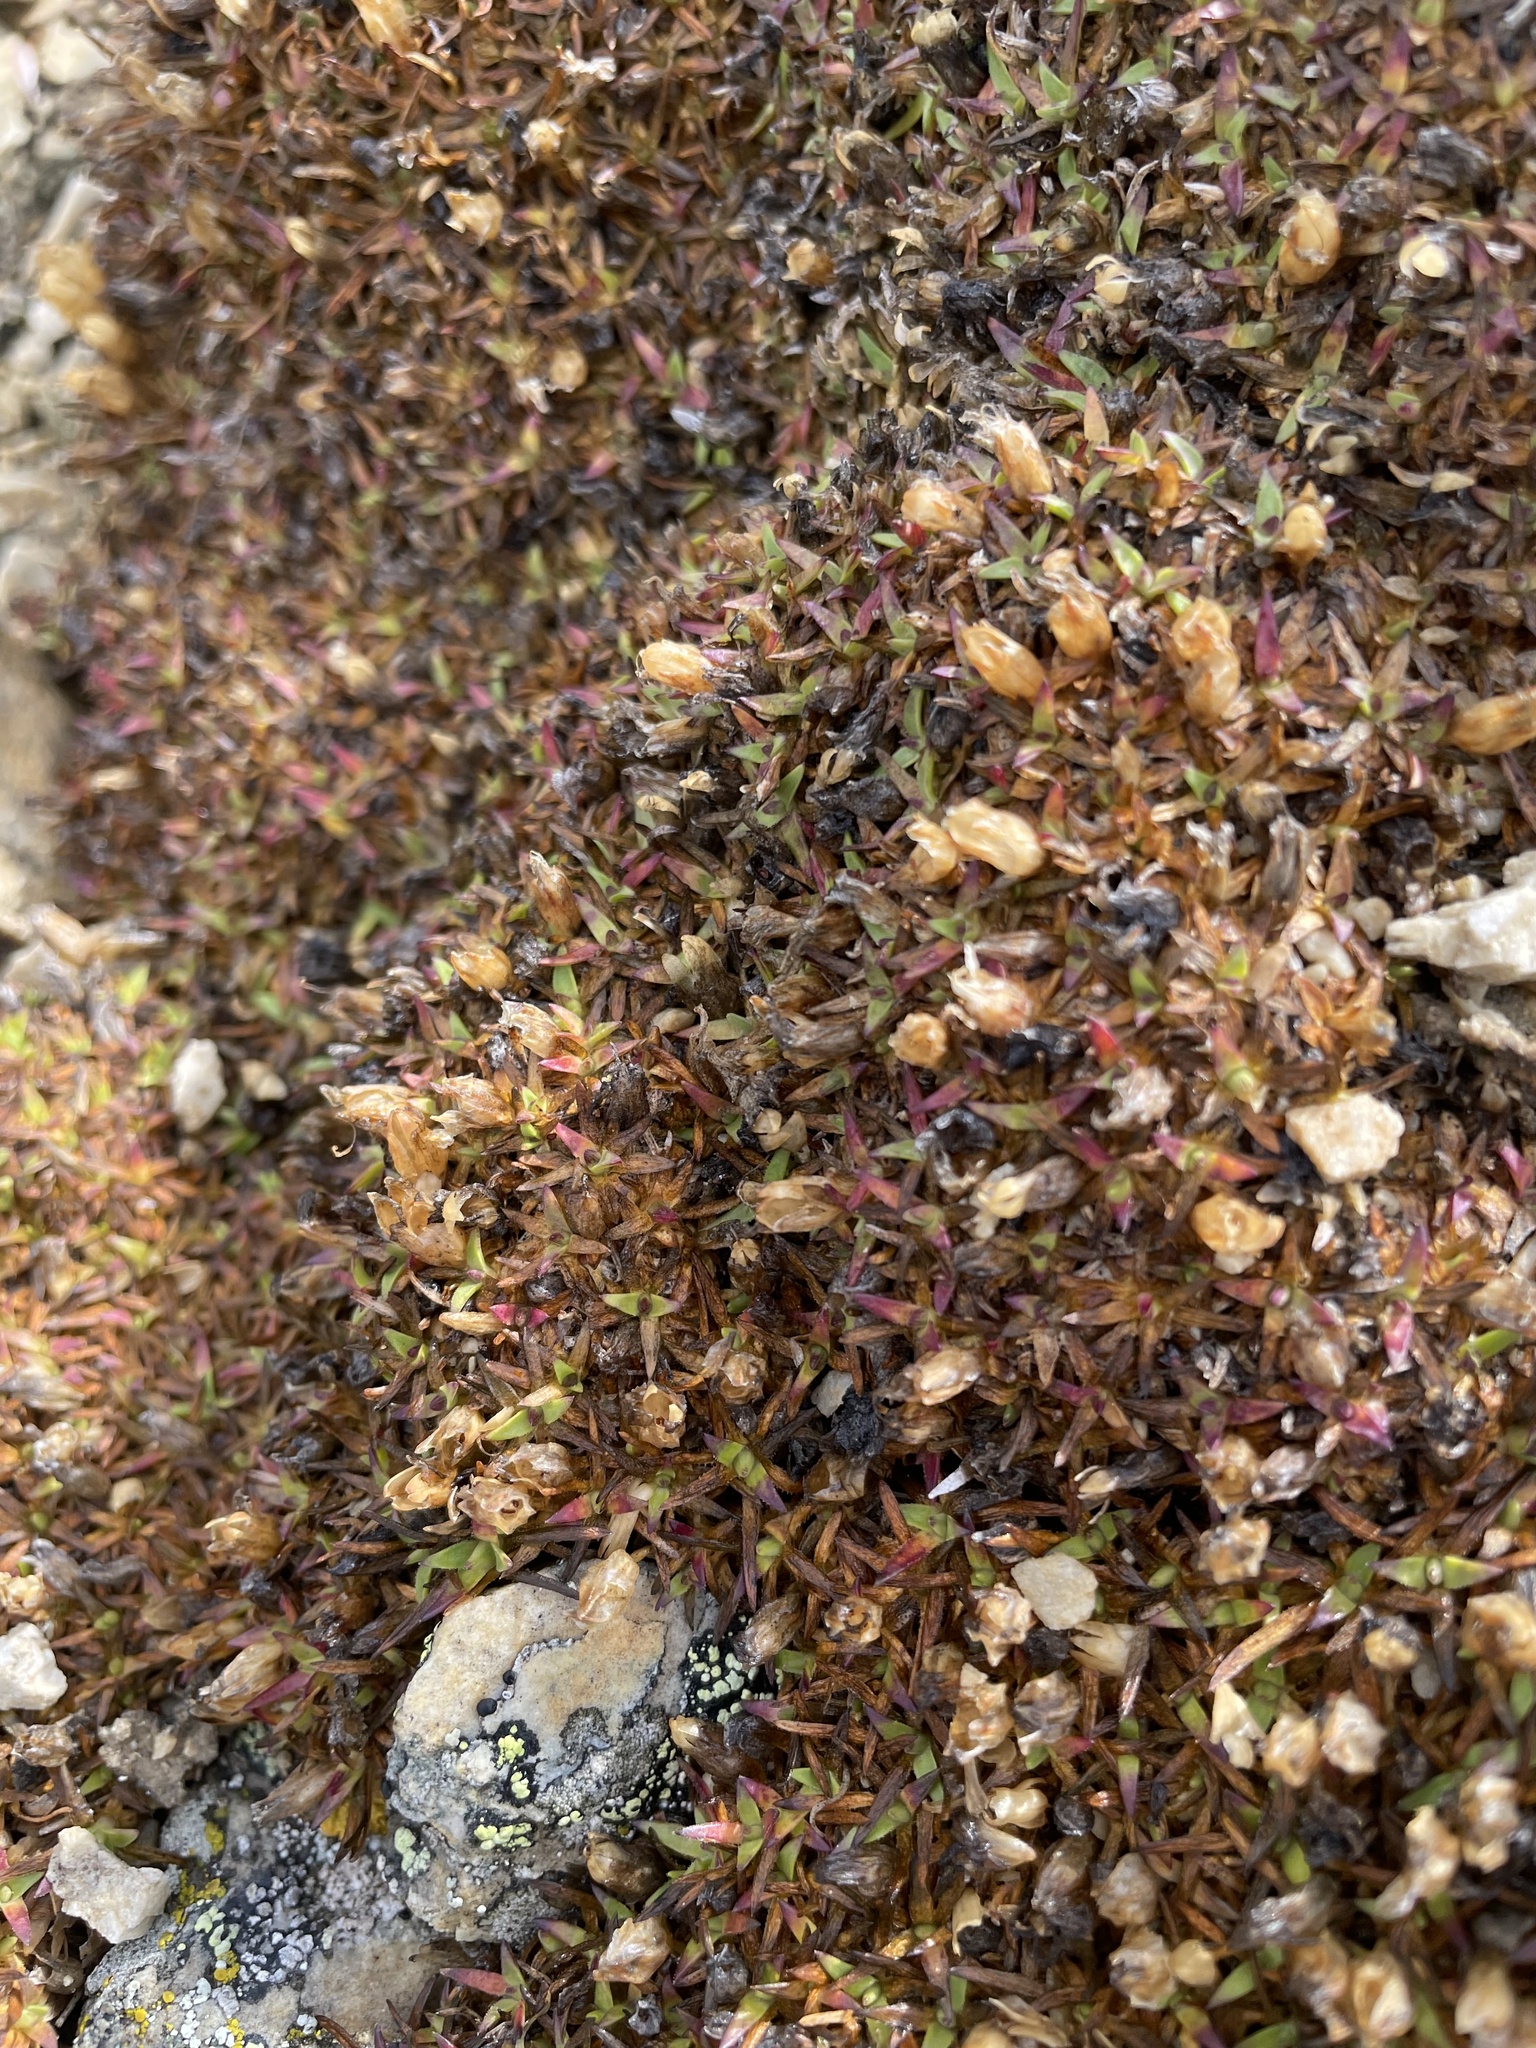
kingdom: Plantae
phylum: Tracheophyta
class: Magnoliopsida
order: Caryophyllales
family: Caryophyllaceae
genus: Silene
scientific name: Silene acaulis
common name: Moss campion
